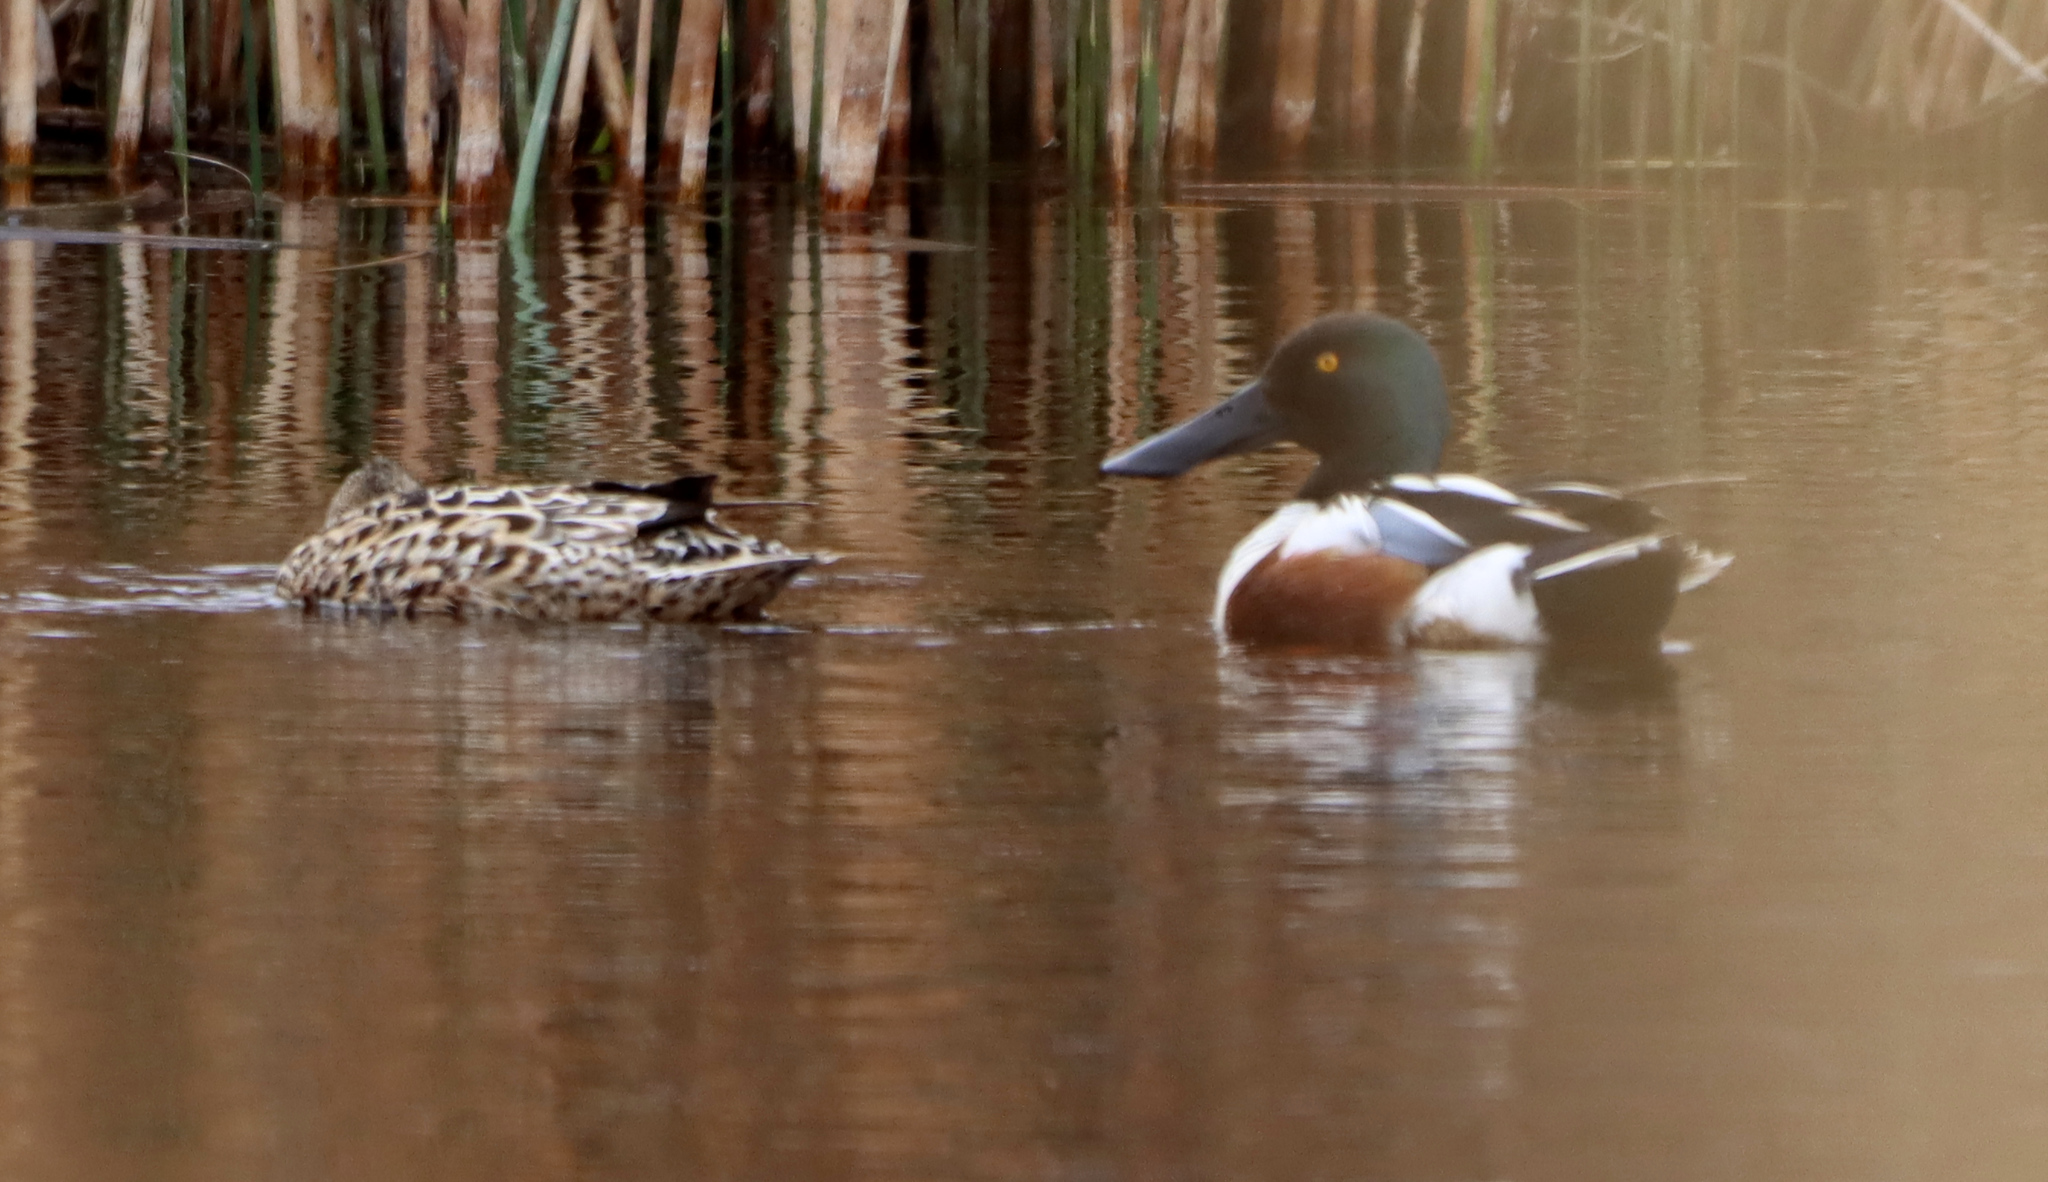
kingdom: Animalia
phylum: Chordata
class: Aves
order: Anseriformes
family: Anatidae
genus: Spatula
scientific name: Spatula clypeata
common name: Northern shoveler
